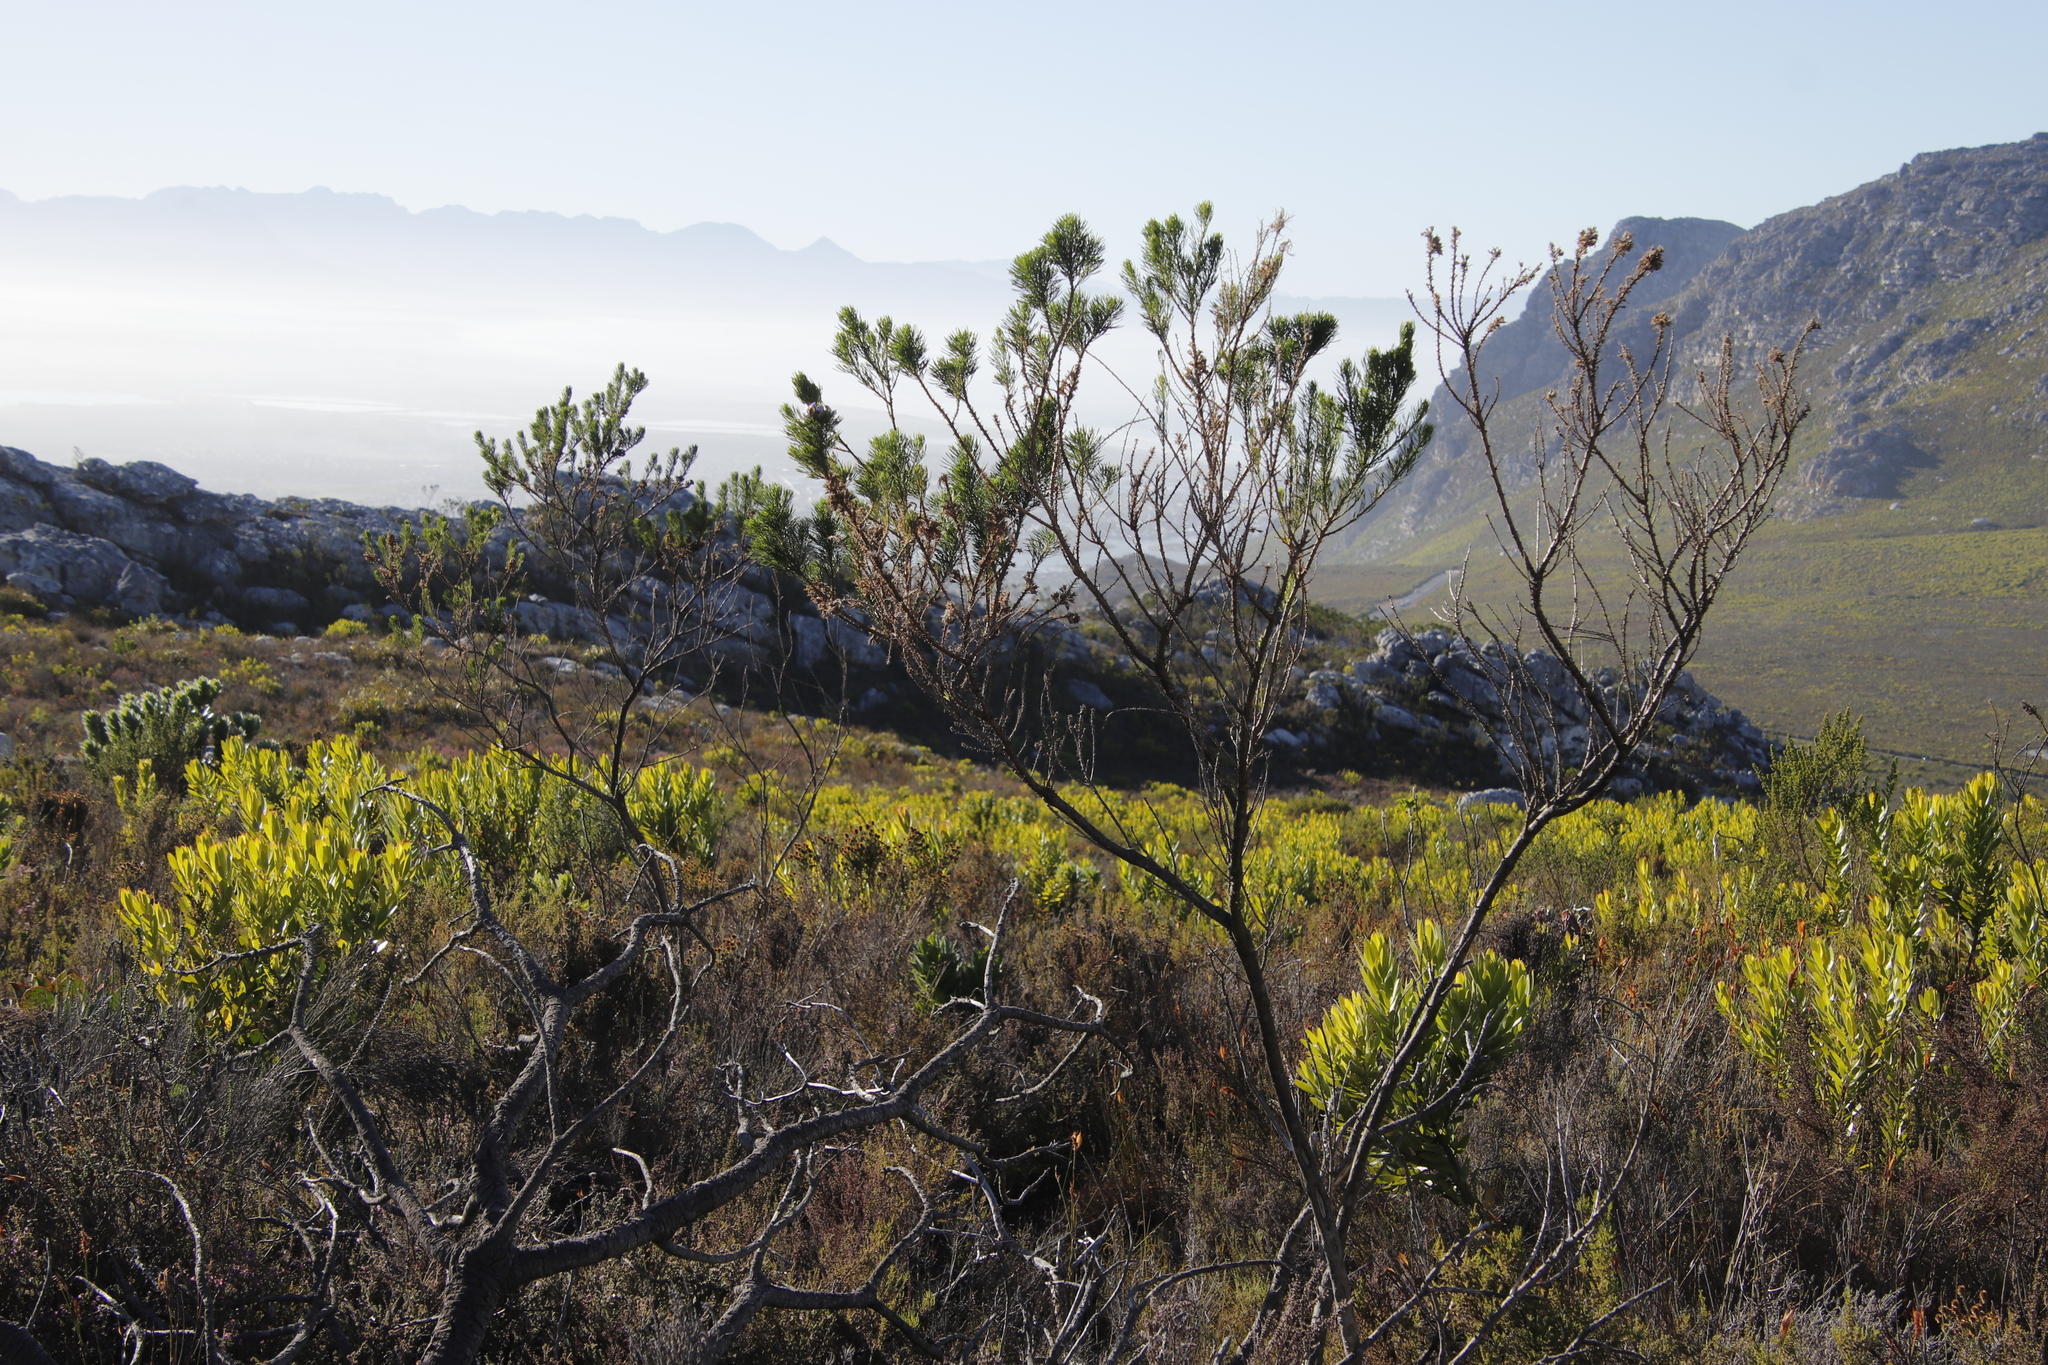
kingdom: Plantae
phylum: Tracheophyta
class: Magnoliopsida
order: Fabales
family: Fabaceae
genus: Psoralea
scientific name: Psoralea pinnata
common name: African scurfpea
